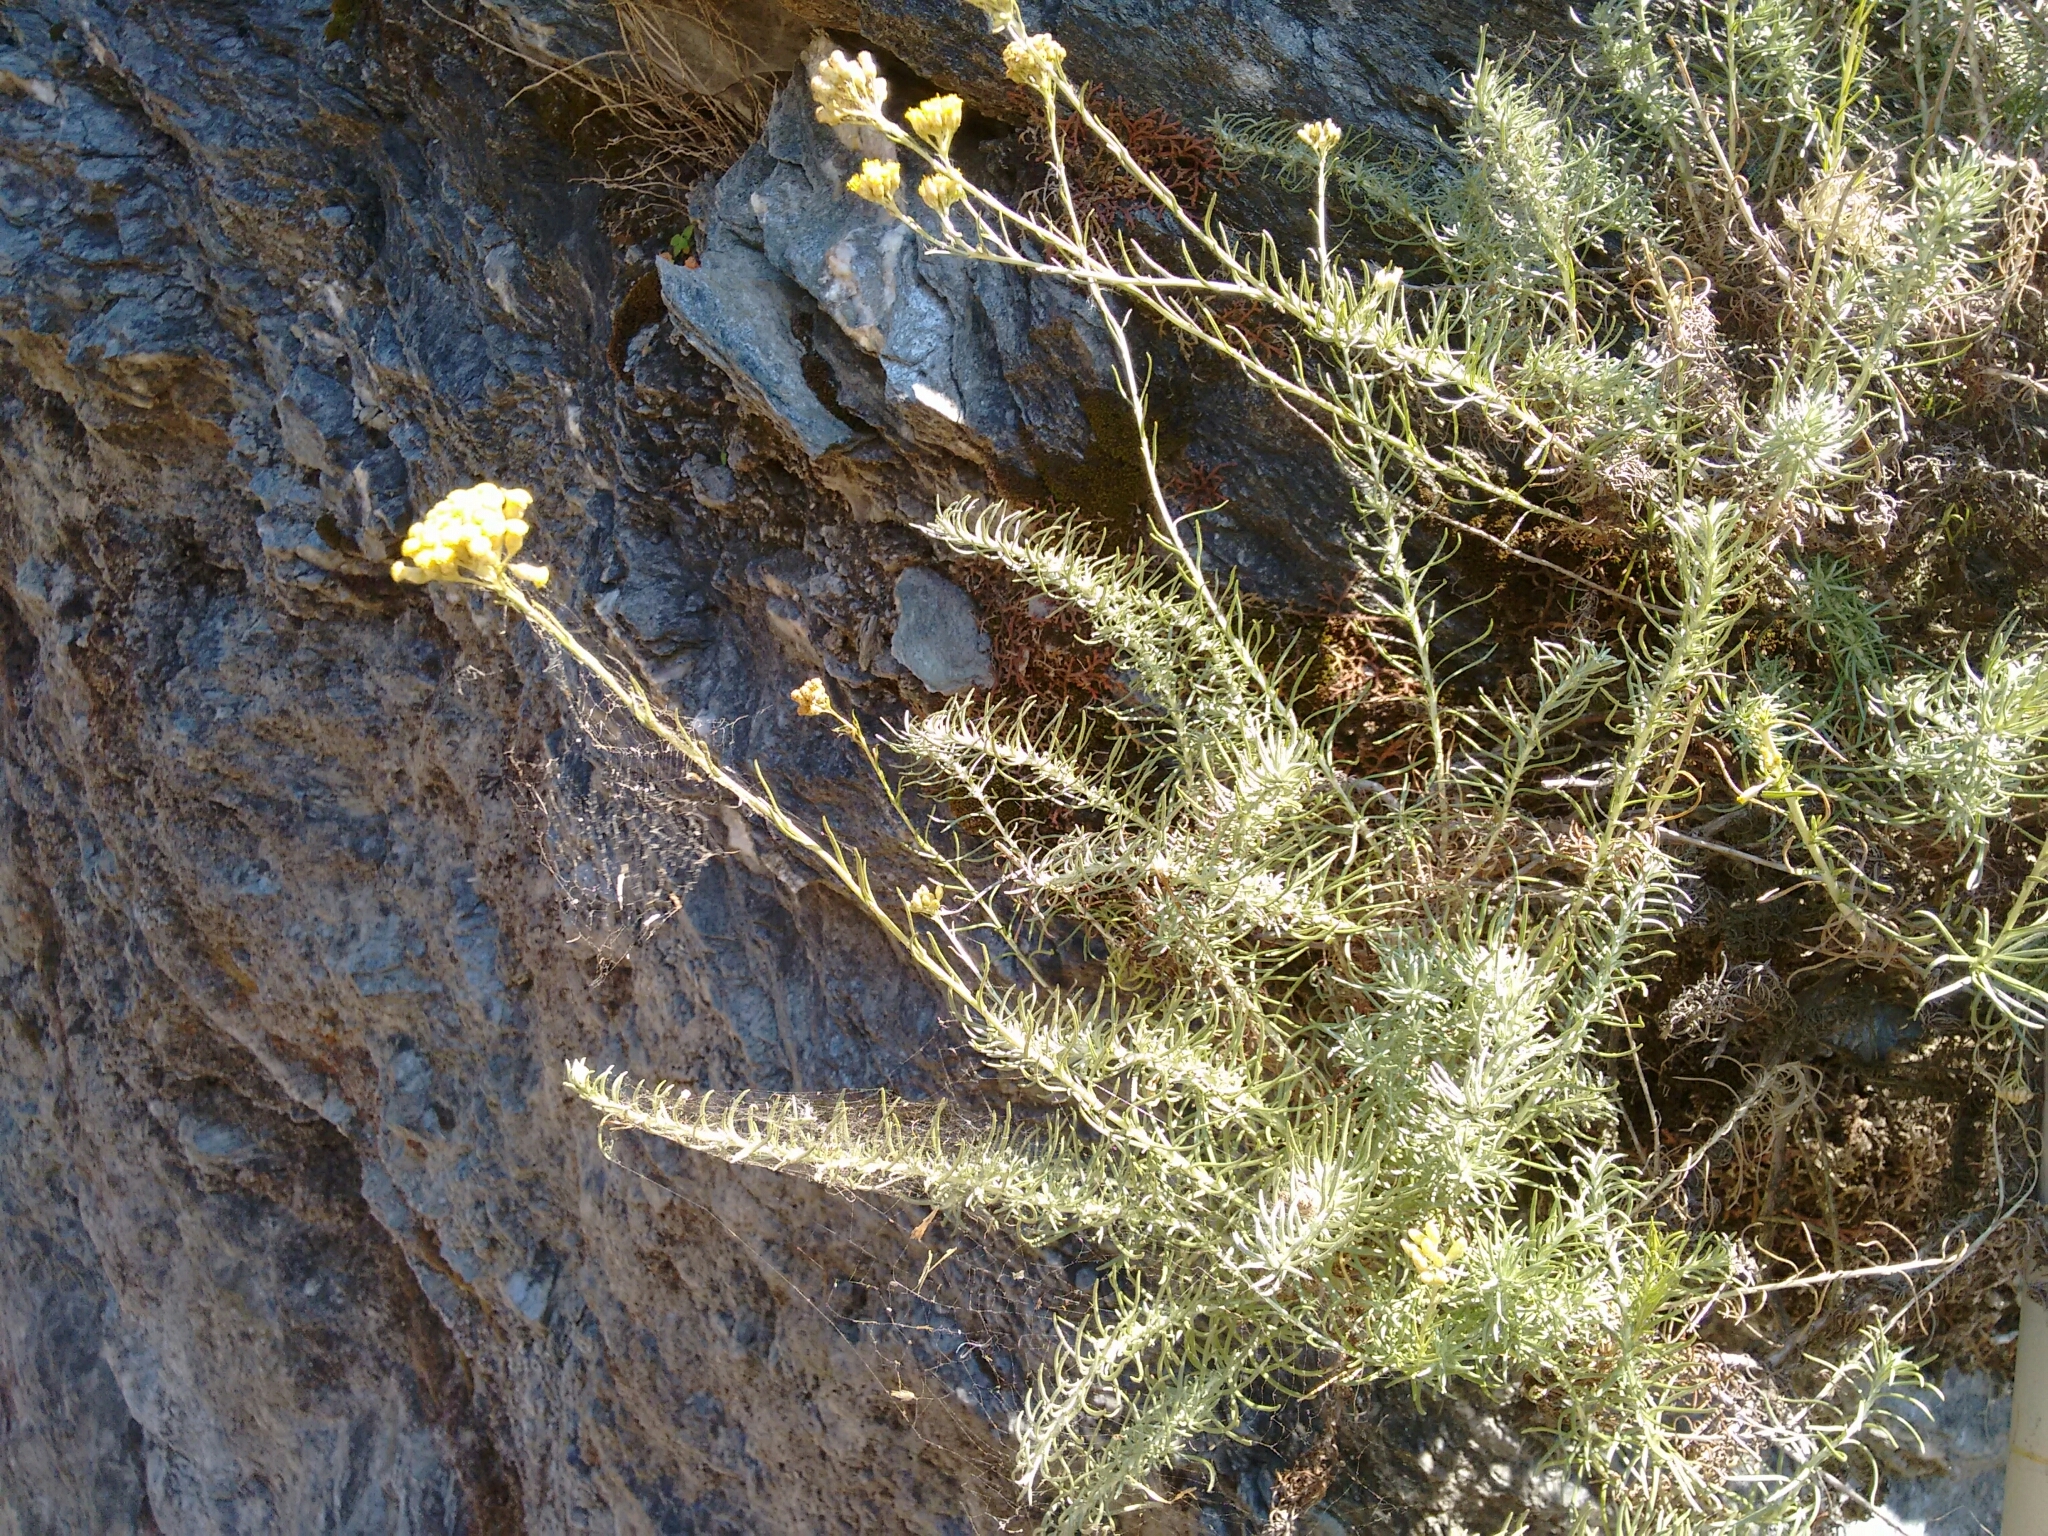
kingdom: Plantae
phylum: Tracheophyta
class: Magnoliopsida
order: Asterales
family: Asteraceae
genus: Helichrysum
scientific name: Helichrysum italicum
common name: Curryplant
